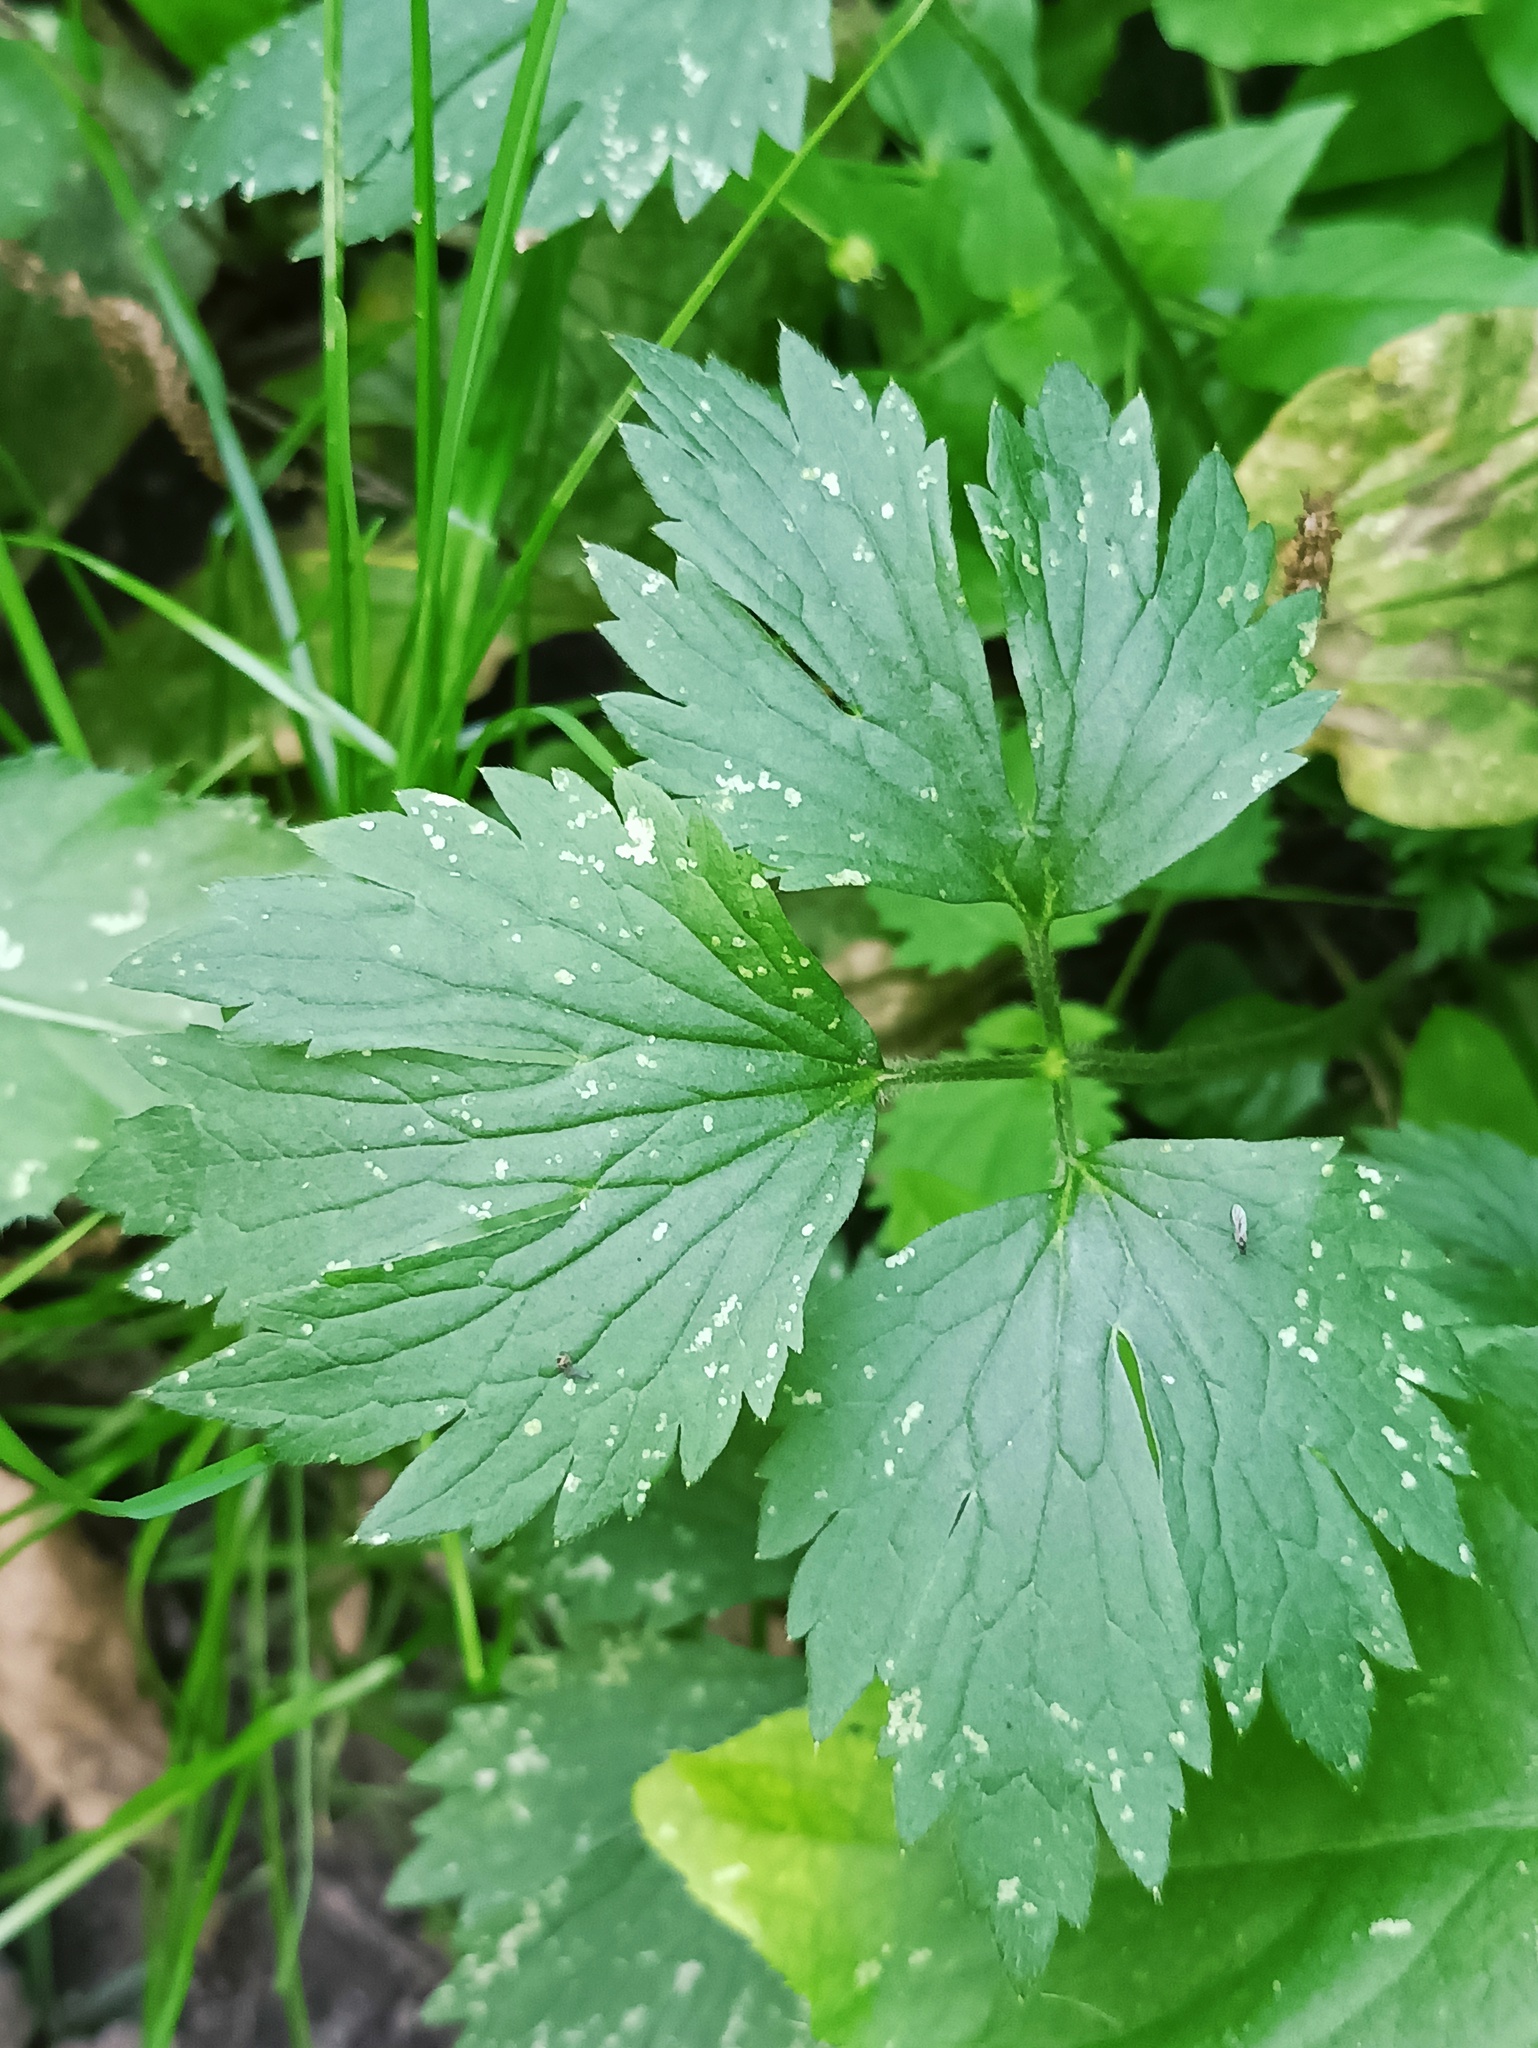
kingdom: Plantae
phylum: Tracheophyta
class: Magnoliopsida
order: Ranunculales
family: Ranunculaceae
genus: Ranunculus
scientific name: Ranunculus repens
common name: Creeping buttercup
